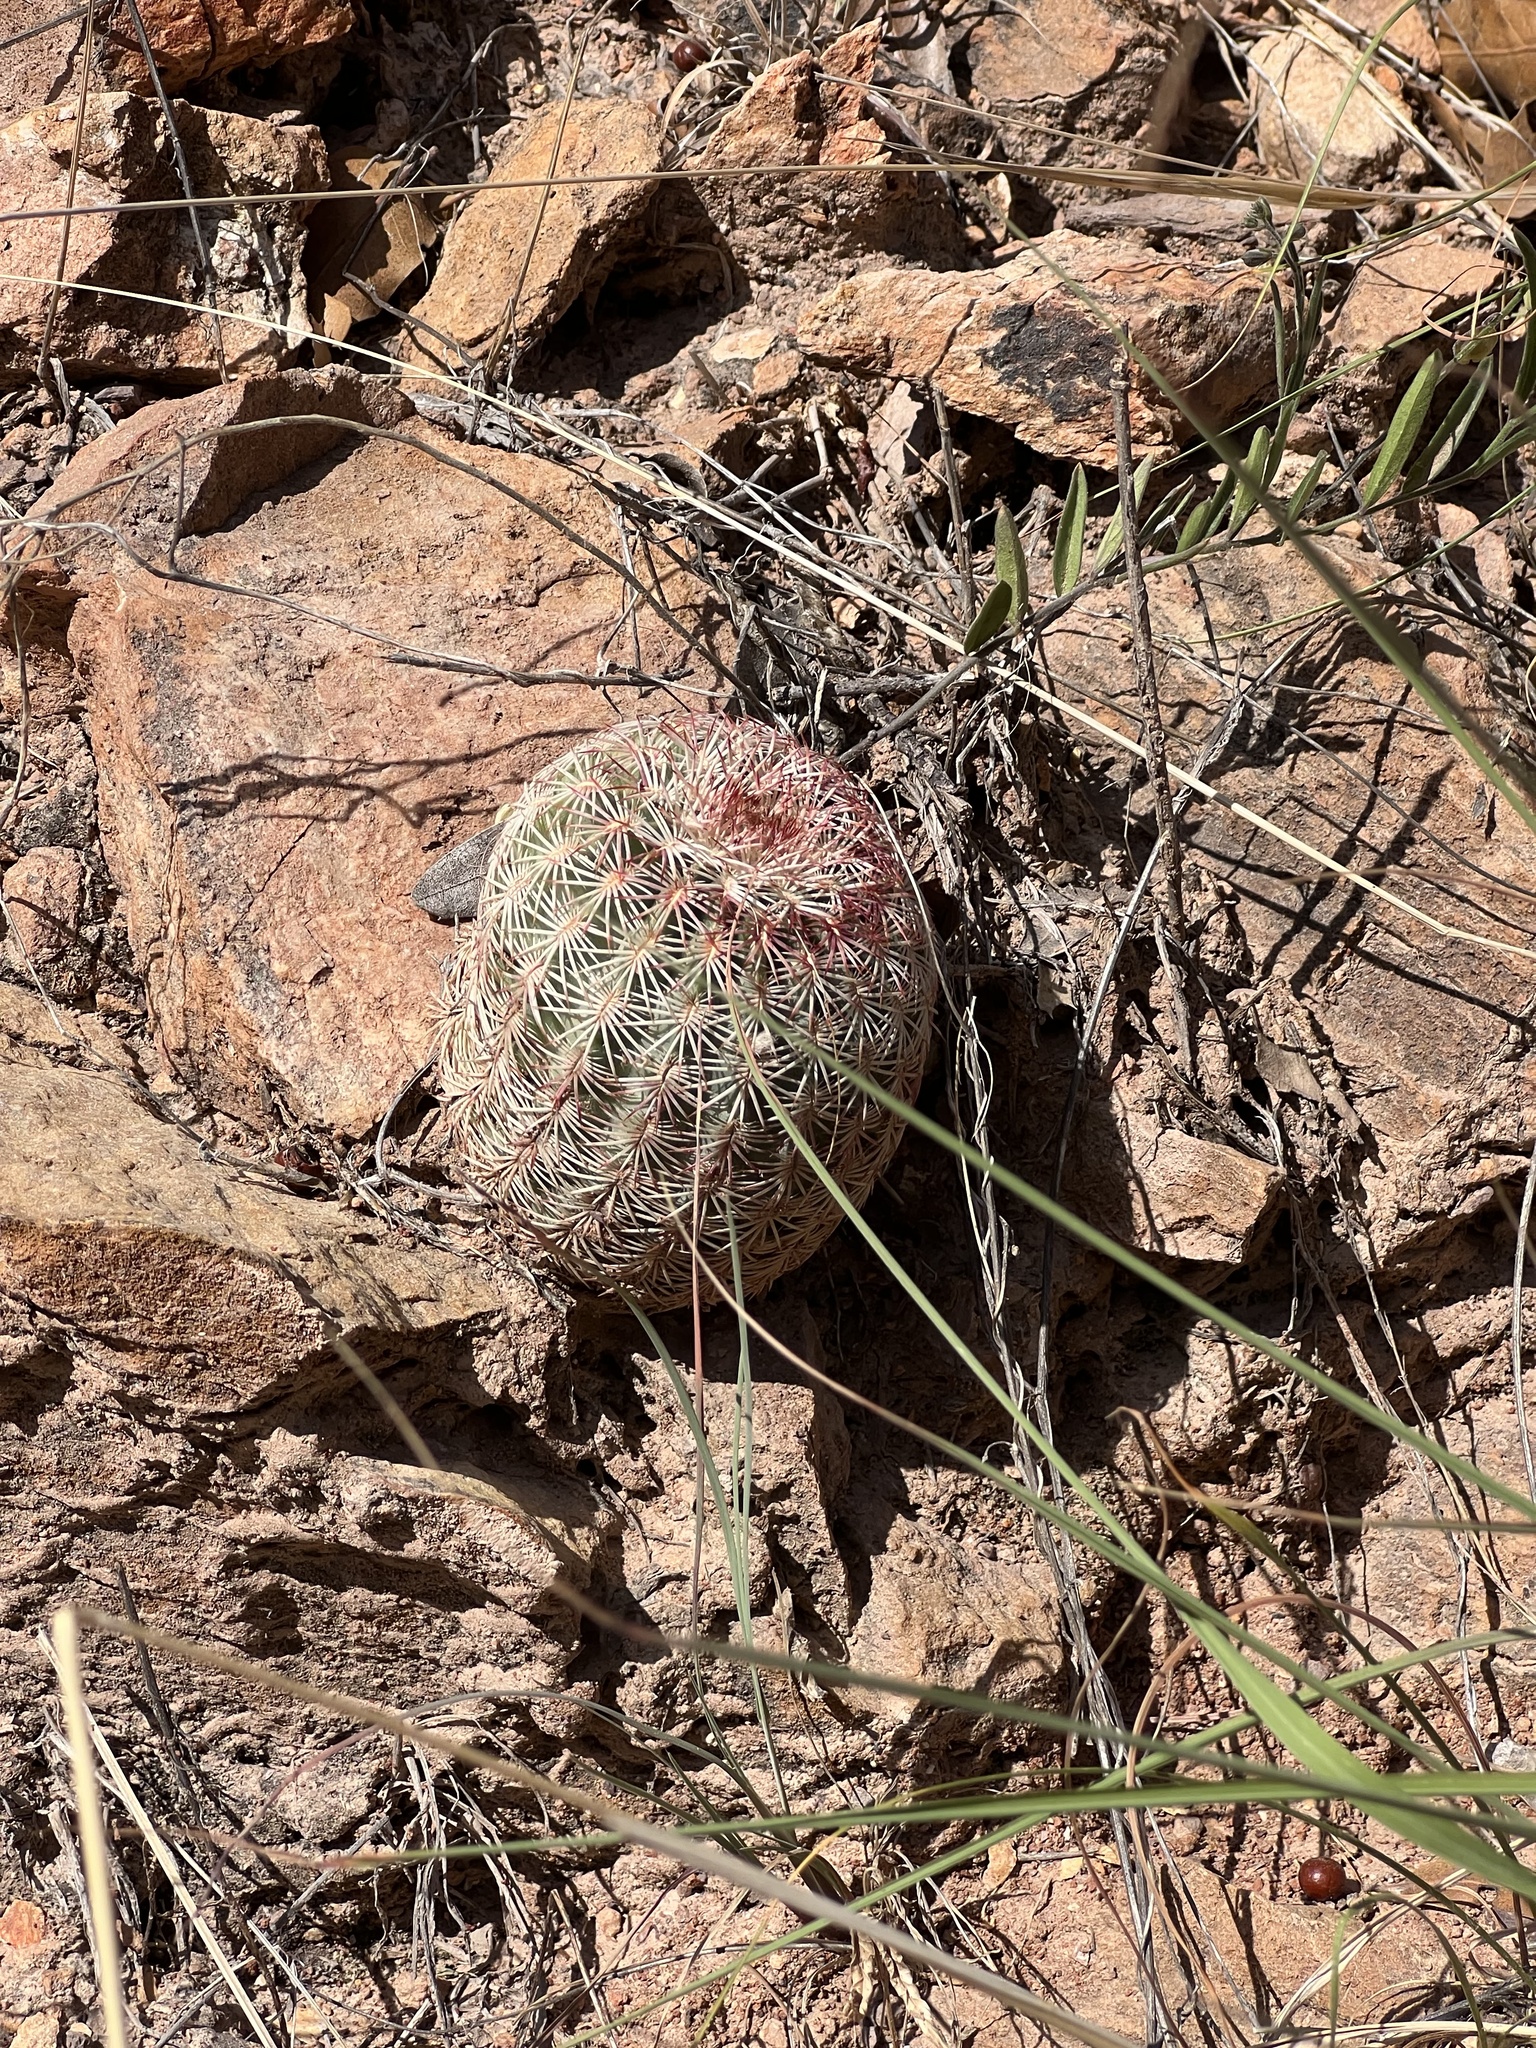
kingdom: Plantae
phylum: Tracheophyta
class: Magnoliopsida
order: Caryophyllales
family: Cactaceae
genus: Echinocereus
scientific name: Echinocereus rigidissimus
